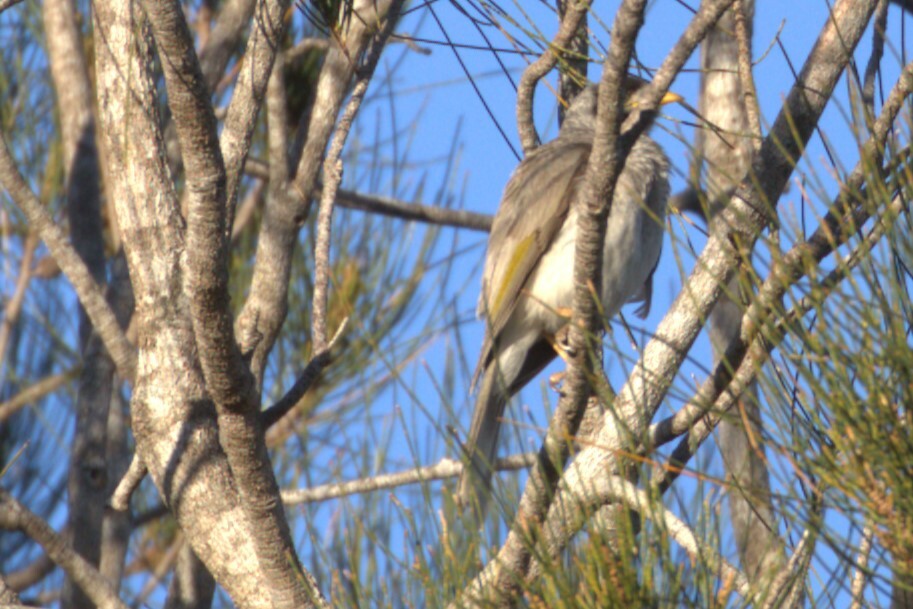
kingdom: Animalia
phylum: Chordata
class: Aves
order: Passeriformes
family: Meliphagidae
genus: Manorina
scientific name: Manorina melanocephala
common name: Noisy miner
